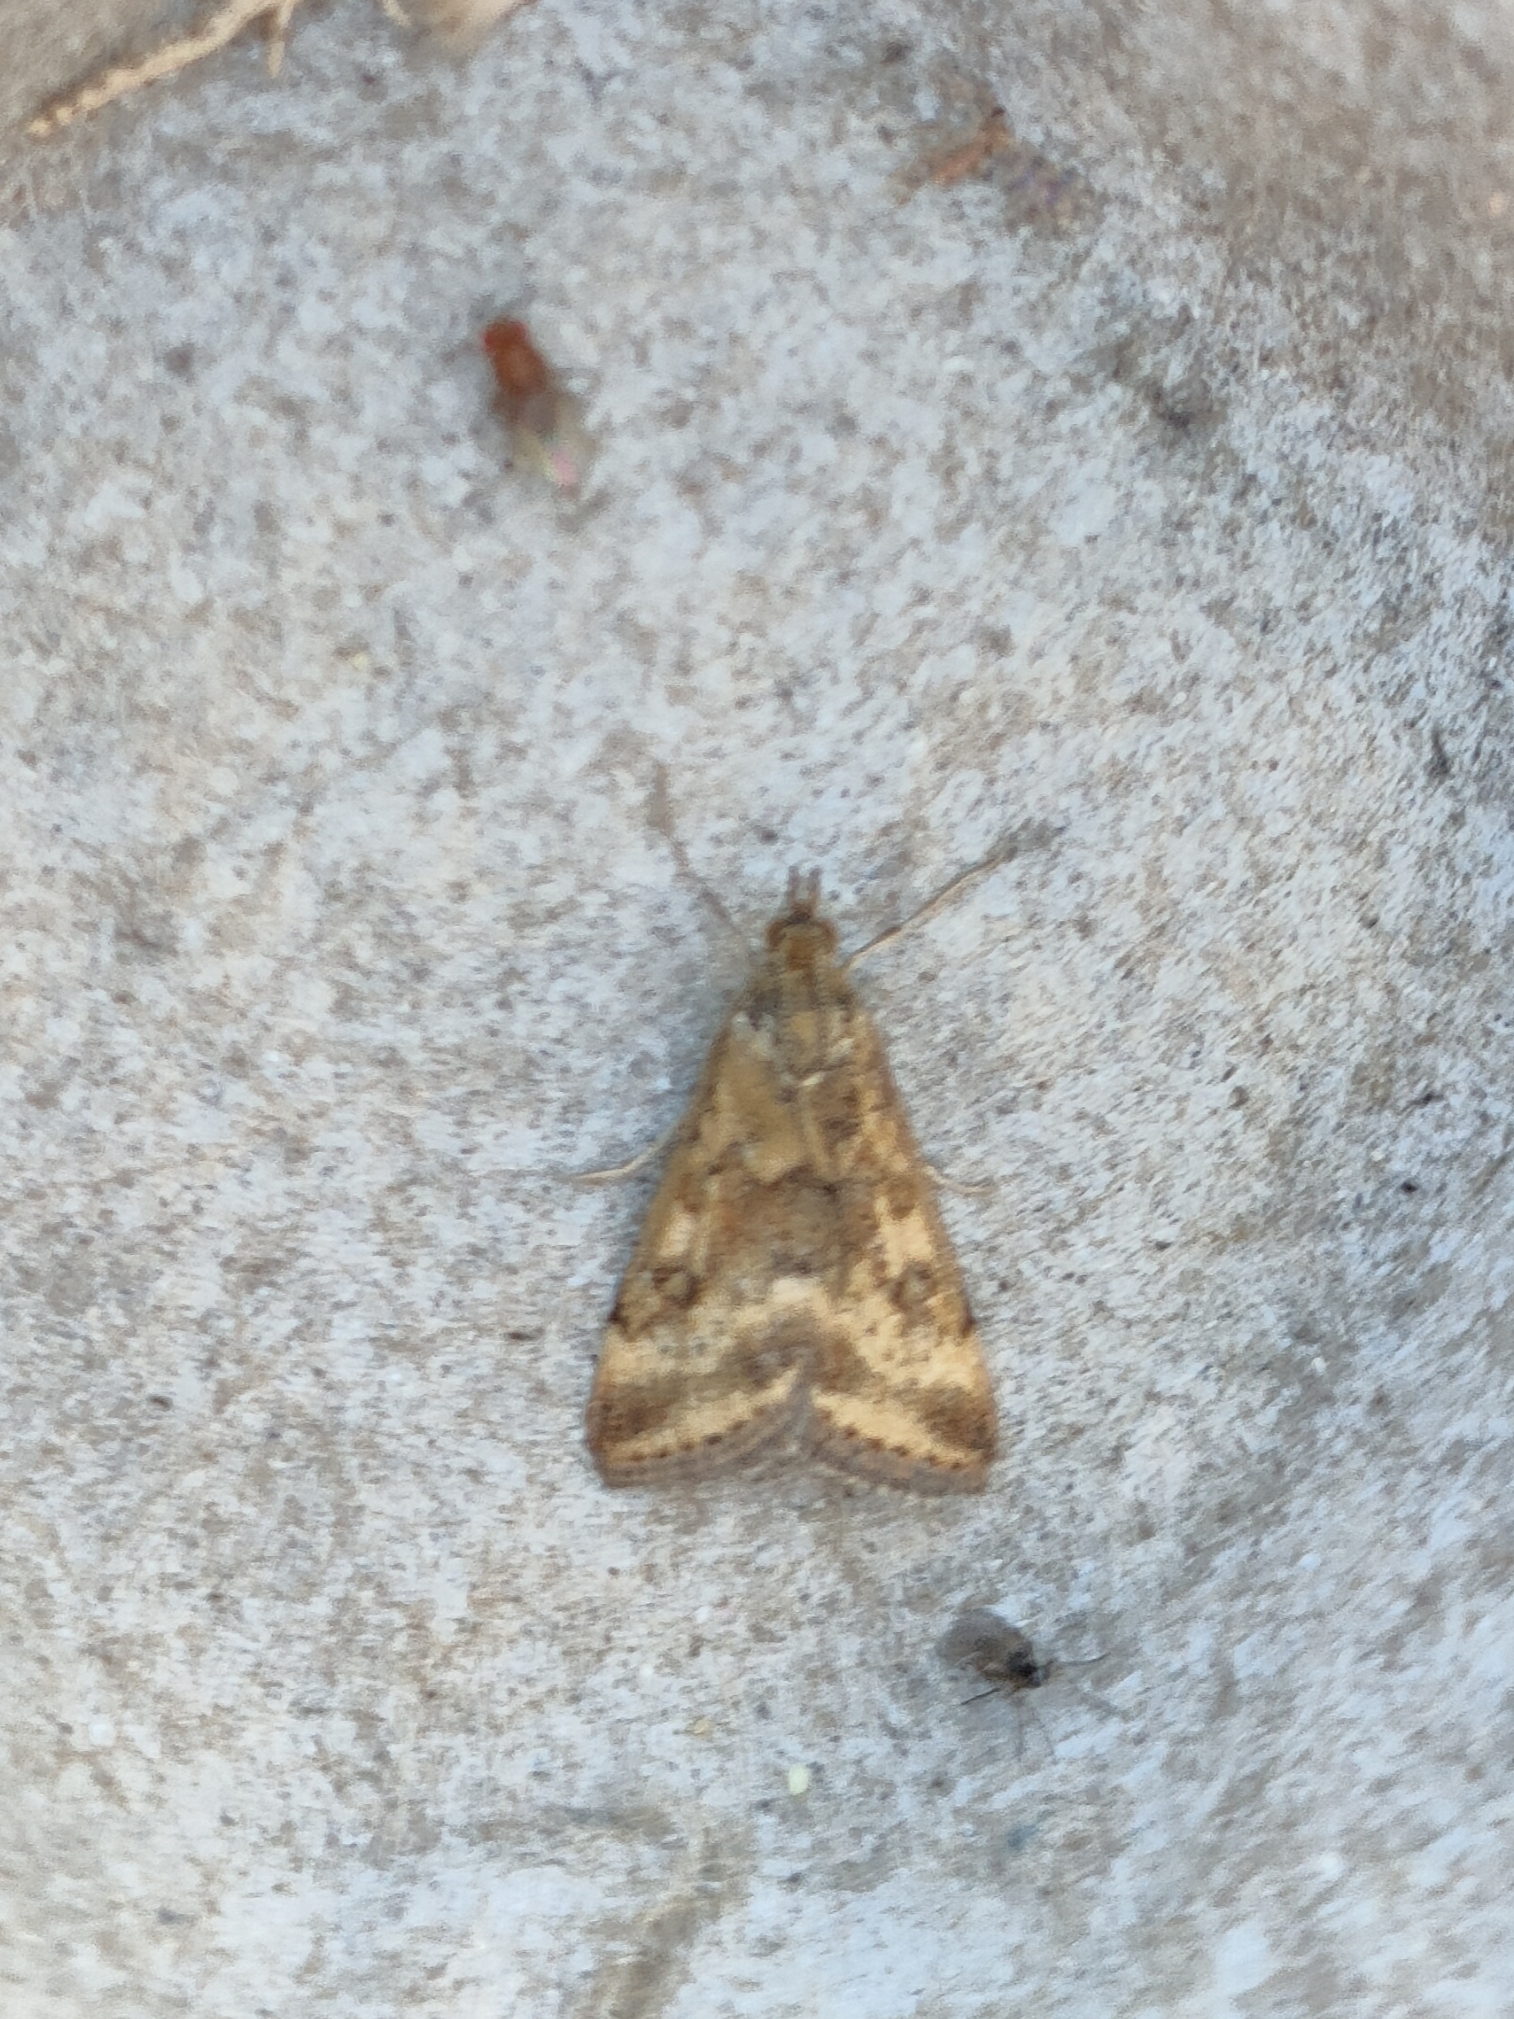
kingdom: Animalia
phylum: Arthropoda
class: Insecta
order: Lepidoptera
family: Crambidae
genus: Pyrausta
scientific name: Pyrausta despicata
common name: Straw-barred pearl
